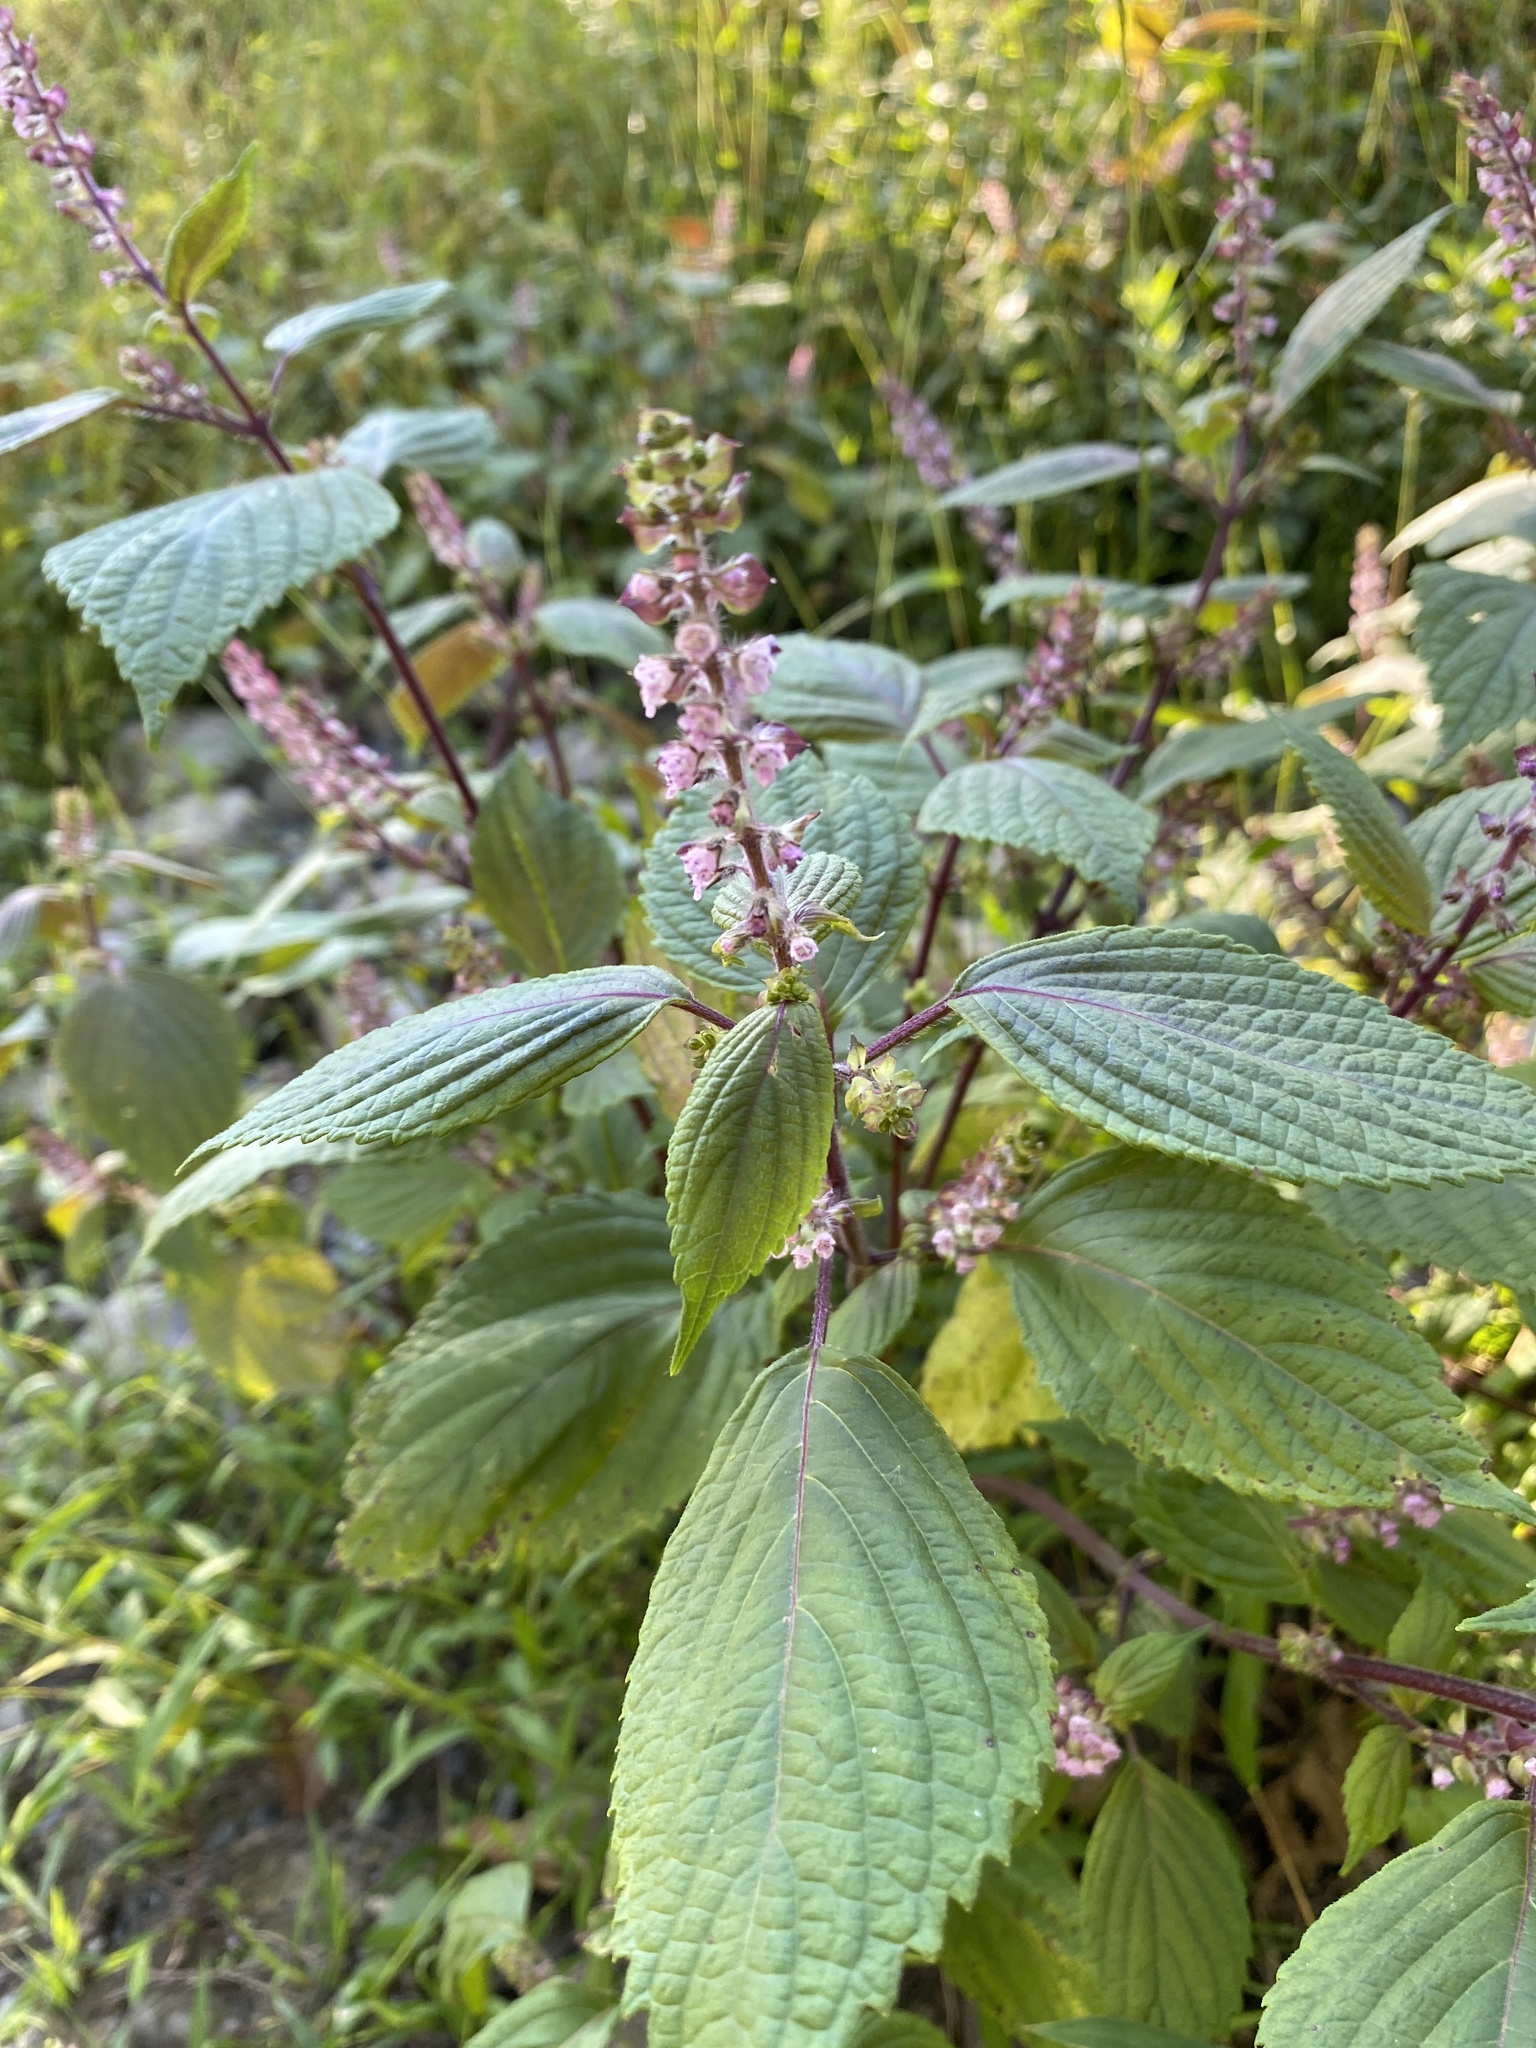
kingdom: Plantae
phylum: Tracheophyta
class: Magnoliopsida
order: Lamiales
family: Lamiaceae
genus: Perilla
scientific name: Perilla frutescens
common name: Perilla
